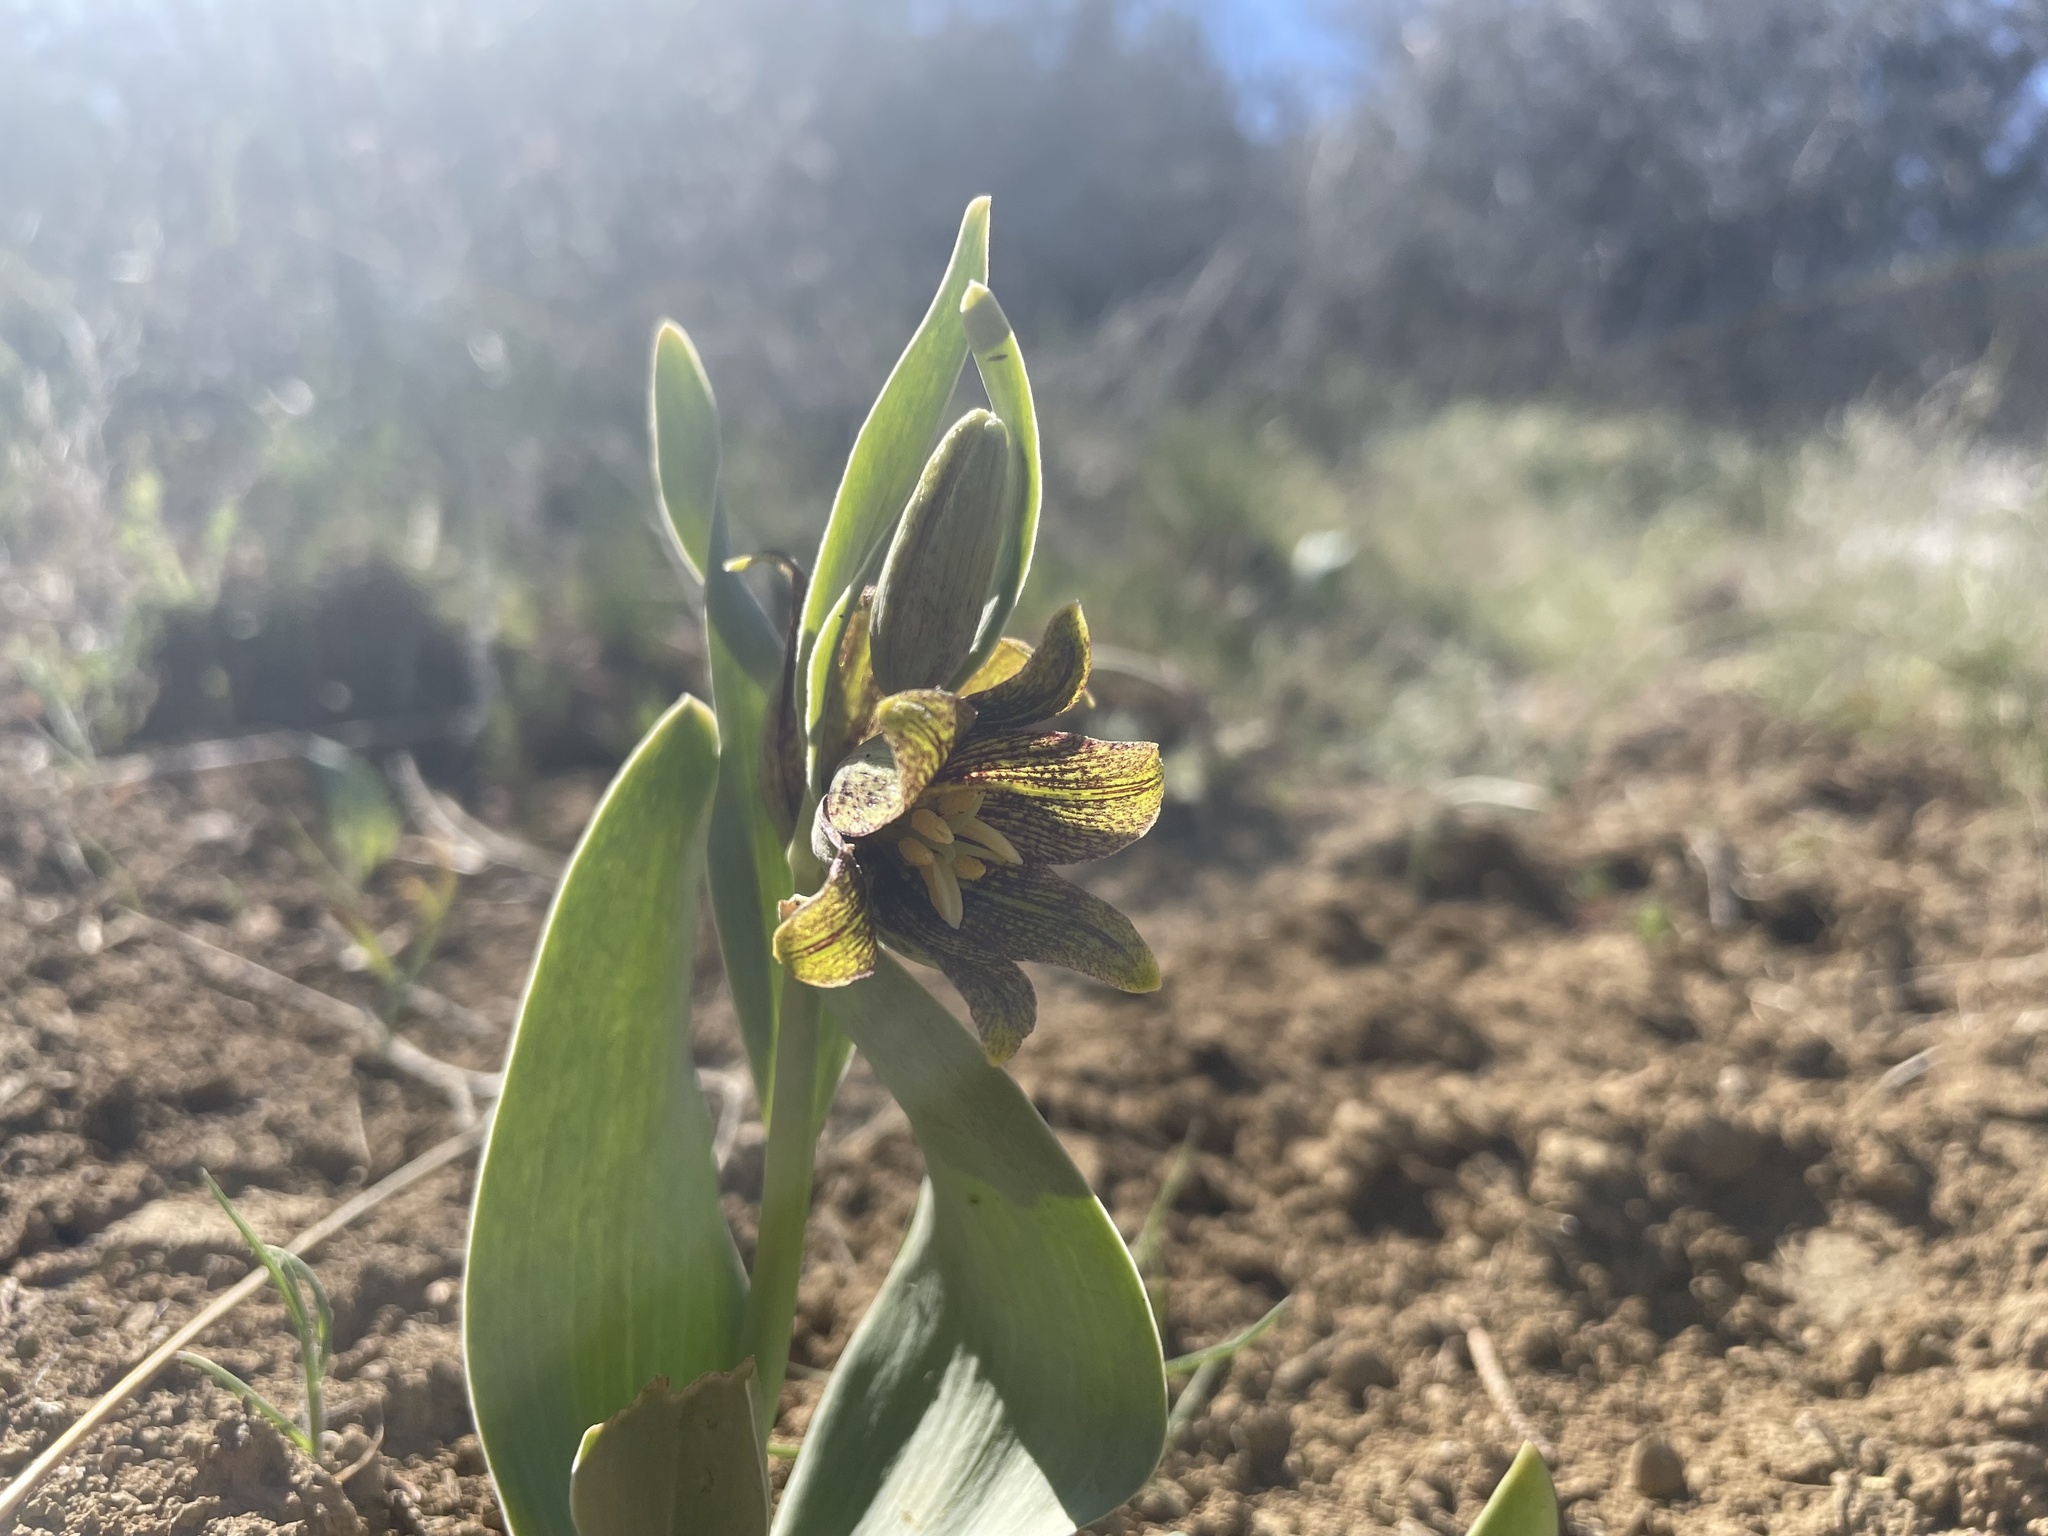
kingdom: Plantae
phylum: Tracheophyta
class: Liliopsida
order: Liliales
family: Liliaceae
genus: Fritillaria
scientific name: Fritillaria agrestis
